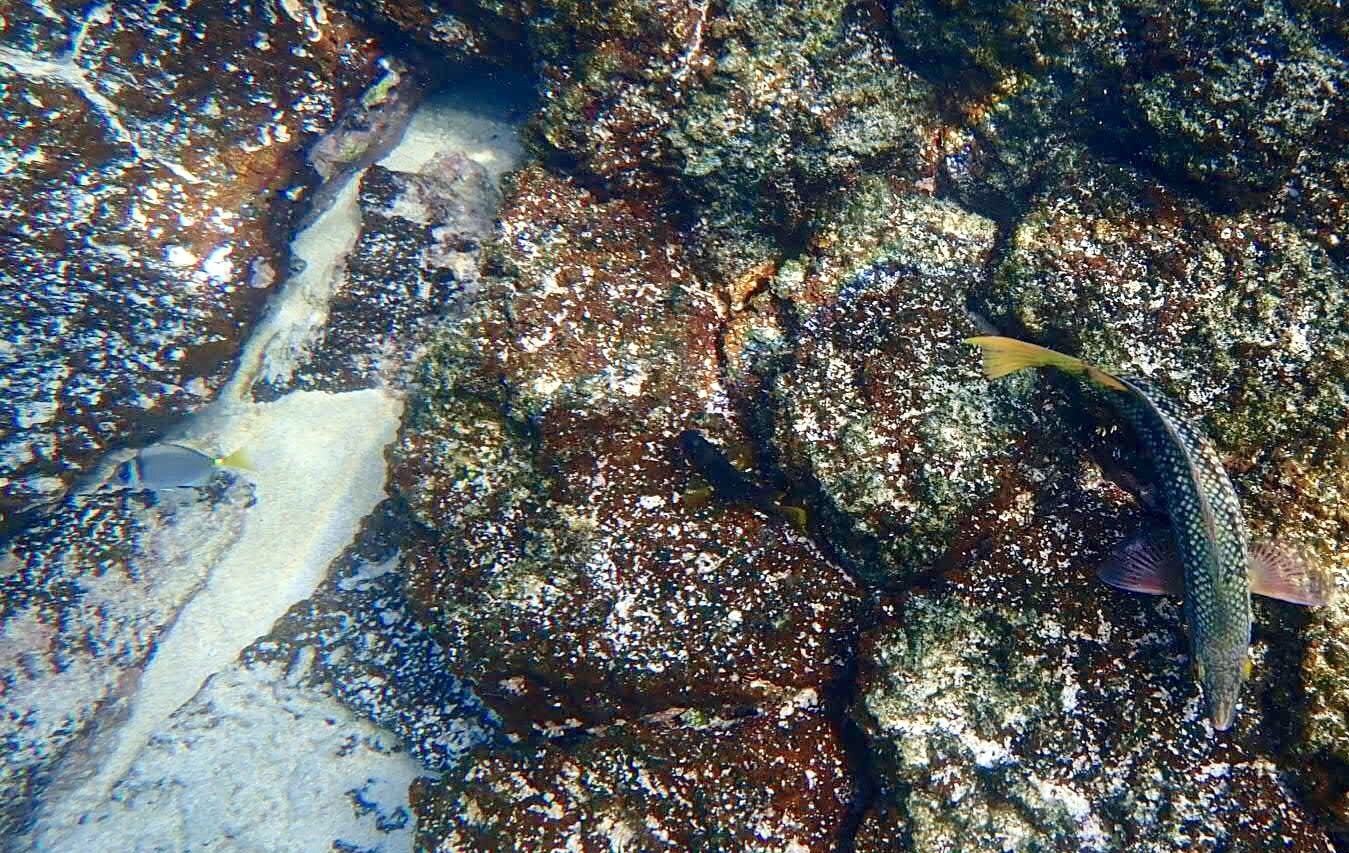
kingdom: Animalia
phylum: Chordata
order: Perciformes
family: Acanthuridae
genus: Prionurus
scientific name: Prionurus laticlavius
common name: Razor surgeonfish
